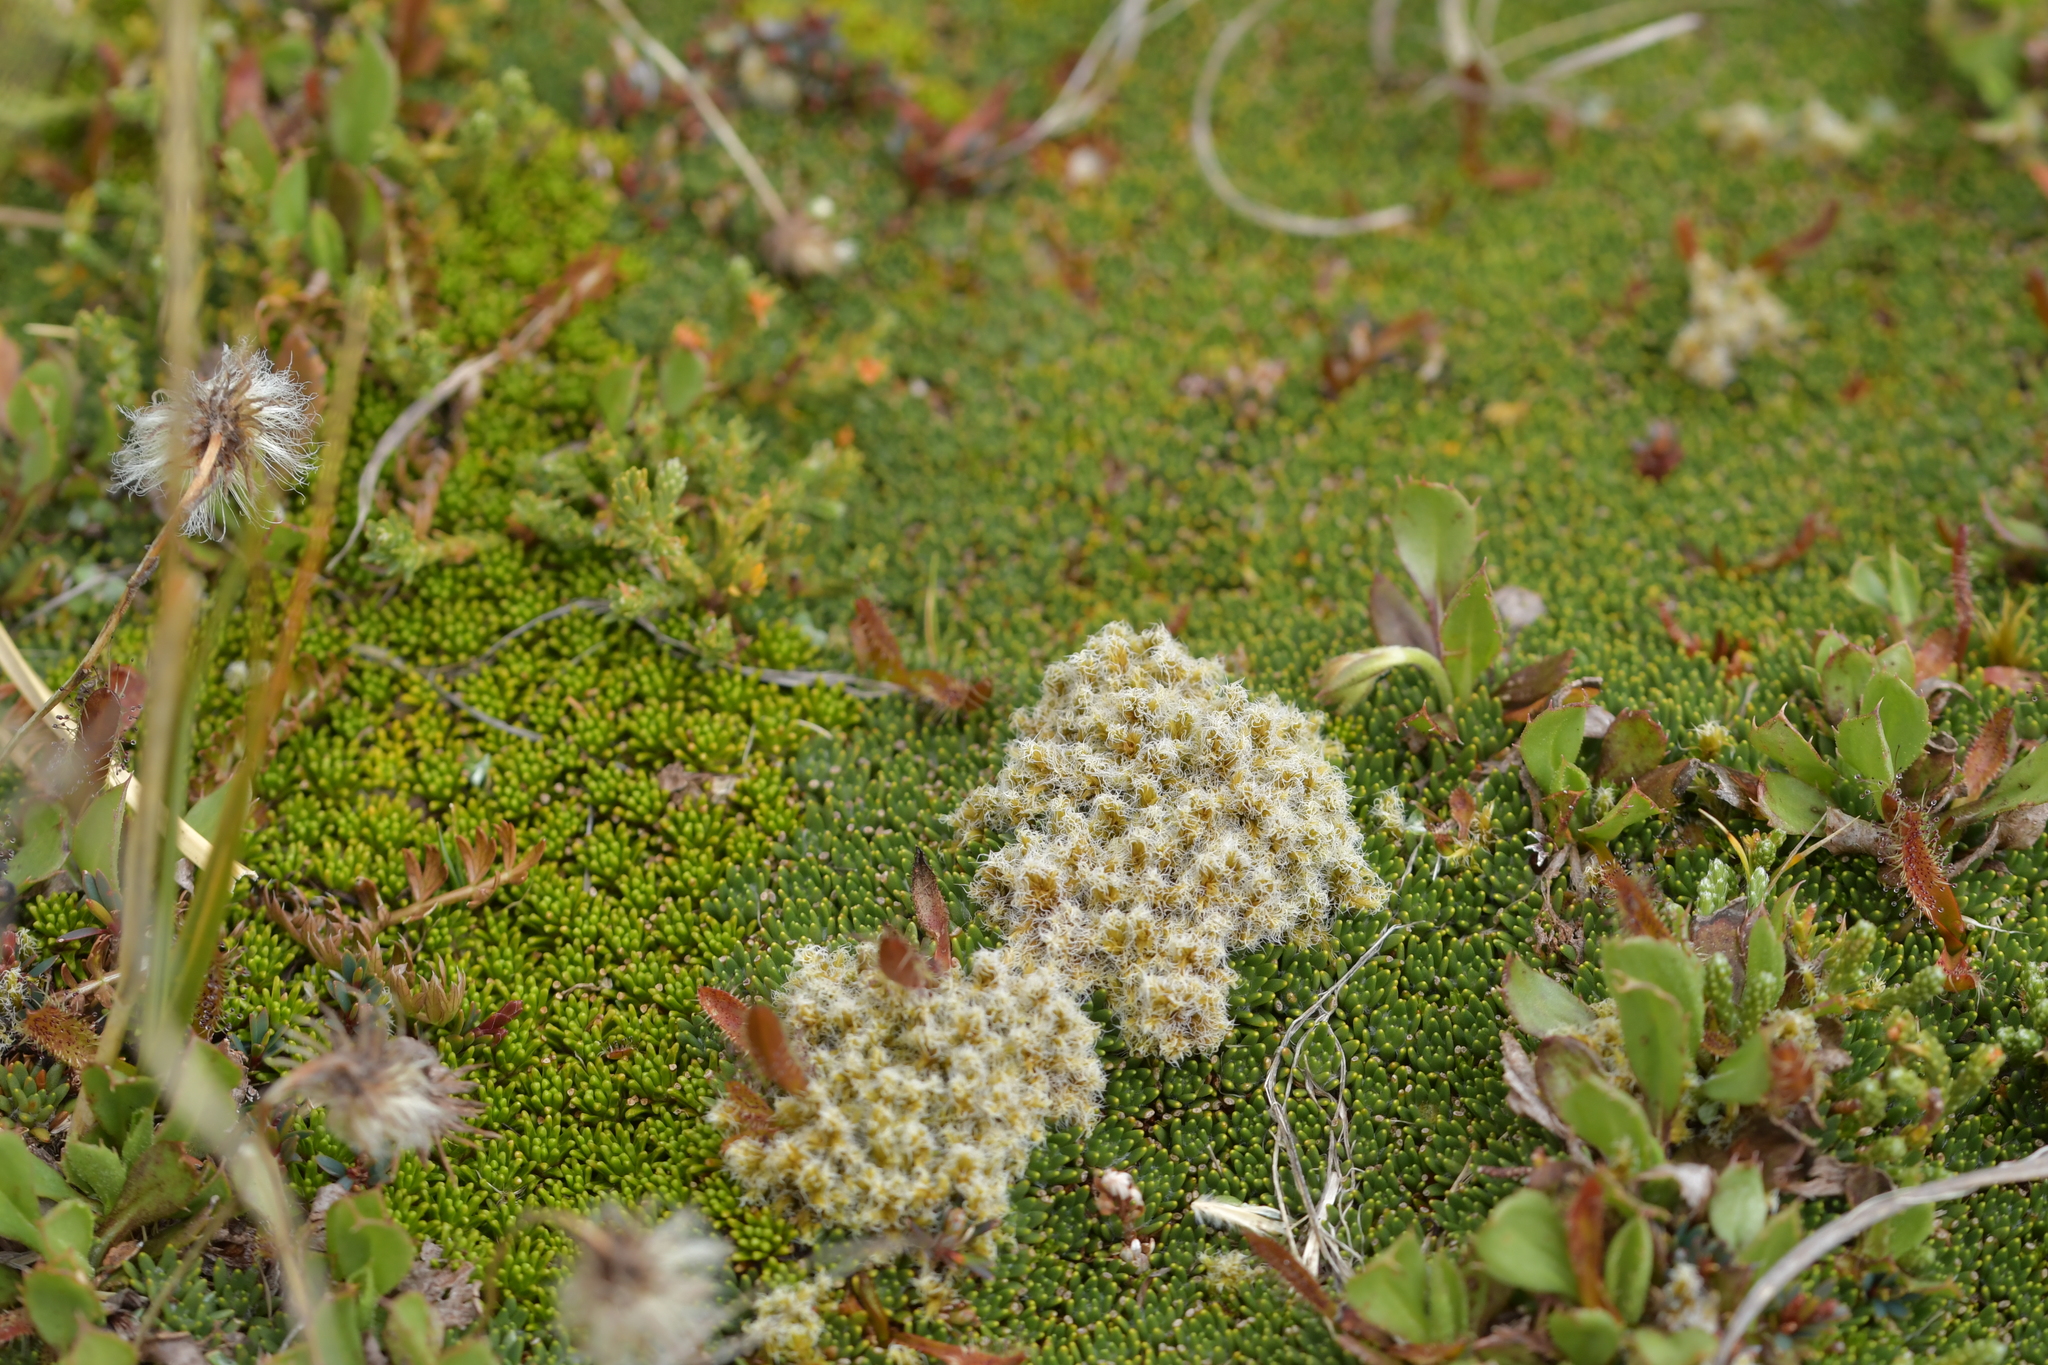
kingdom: Plantae
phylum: Bryophyta
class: Bryopsida
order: Grimmiales
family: Grimmiaceae
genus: Racomitrium
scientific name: Racomitrium lanuginosum
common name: Hoary rock moss
